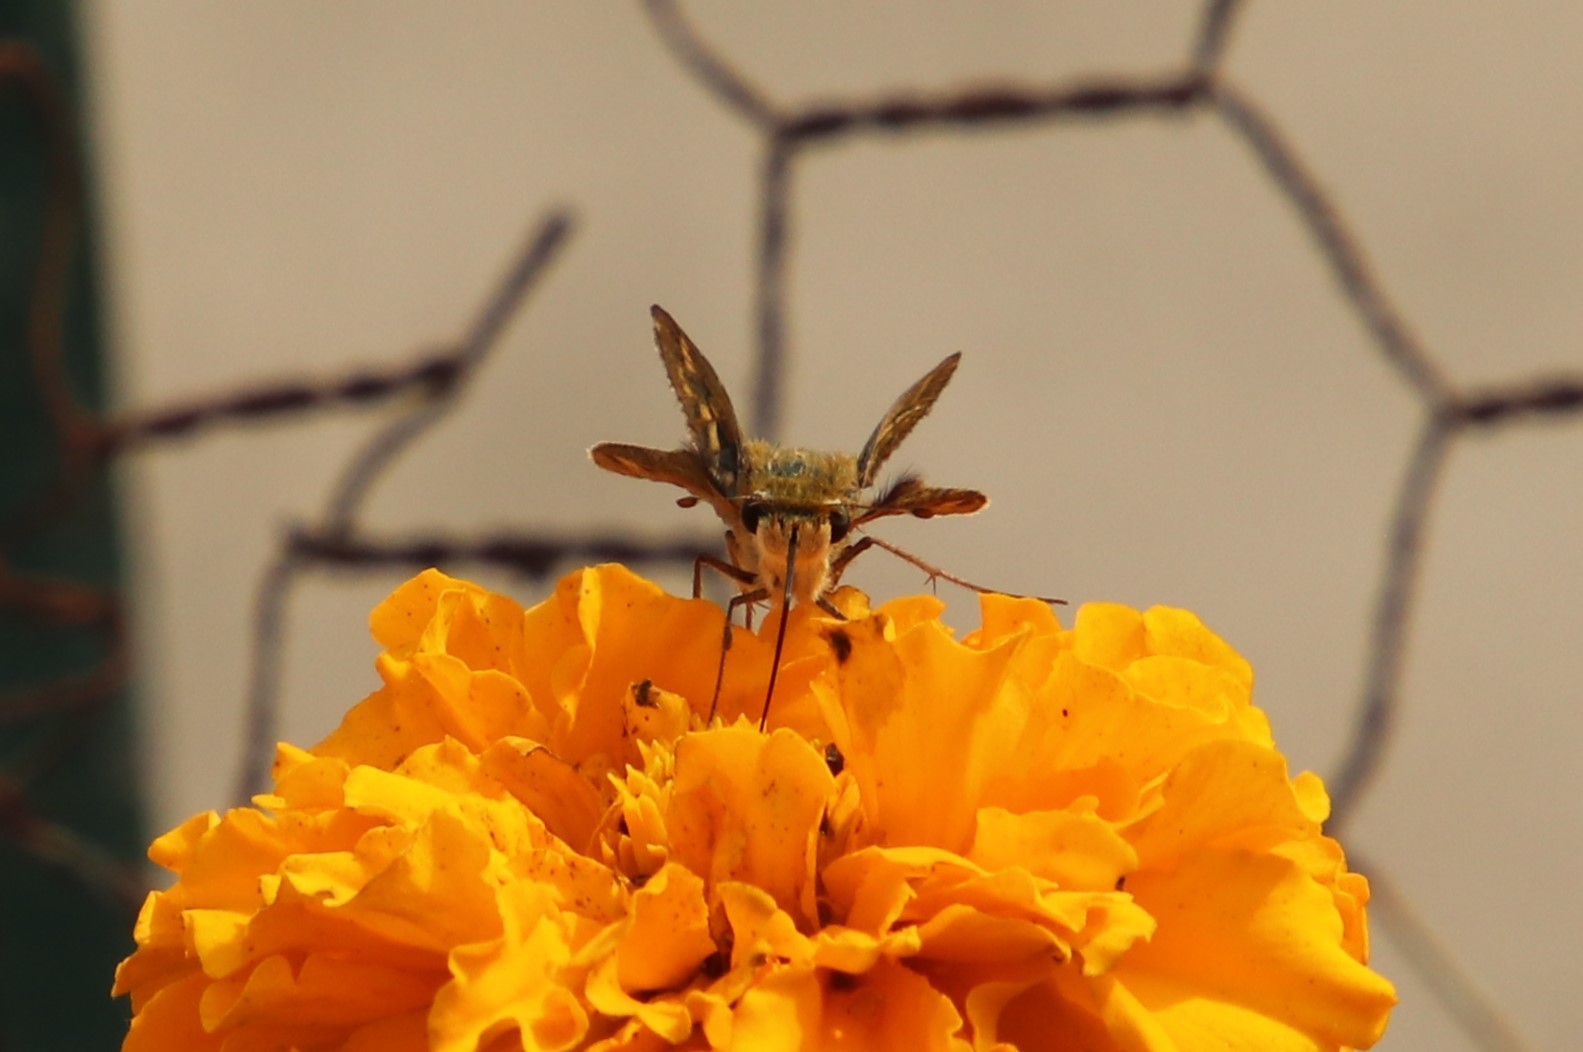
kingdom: Animalia
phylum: Arthropoda
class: Insecta
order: Lepidoptera
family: Hesperiidae
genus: Hylephila
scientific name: Hylephila phyleus
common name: Fiery skipper
